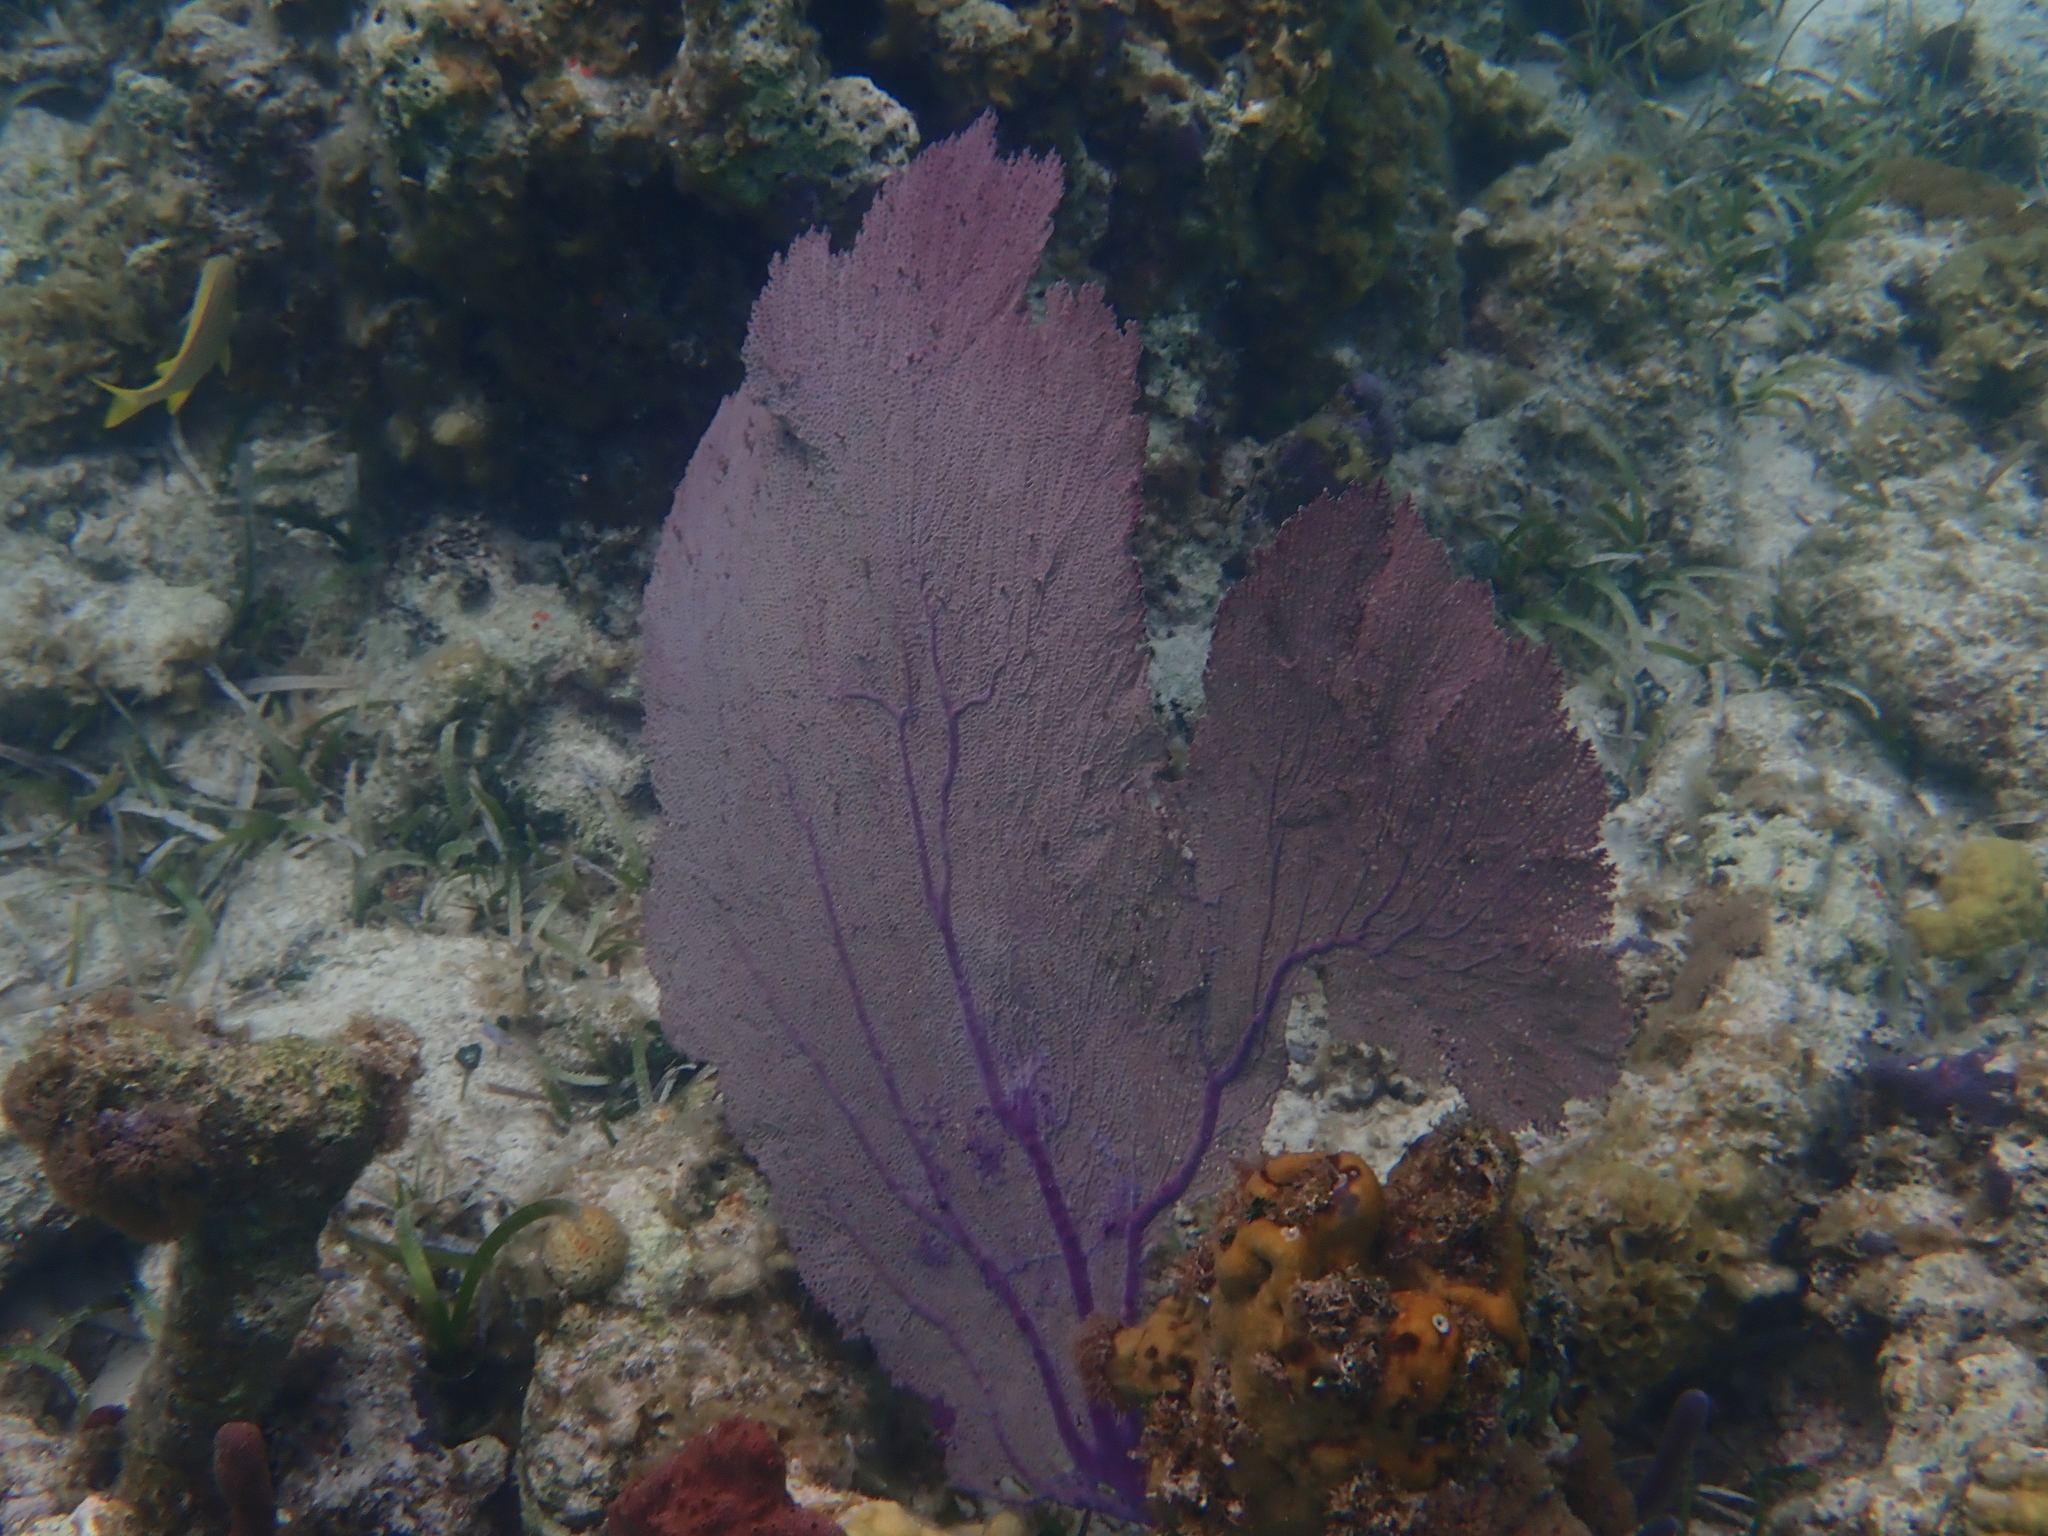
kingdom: Animalia
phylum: Cnidaria
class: Anthozoa
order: Malacalcyonacea
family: Gorgoniidae
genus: Gorgonia
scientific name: Gorgonia ventalina
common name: Common sea fan
